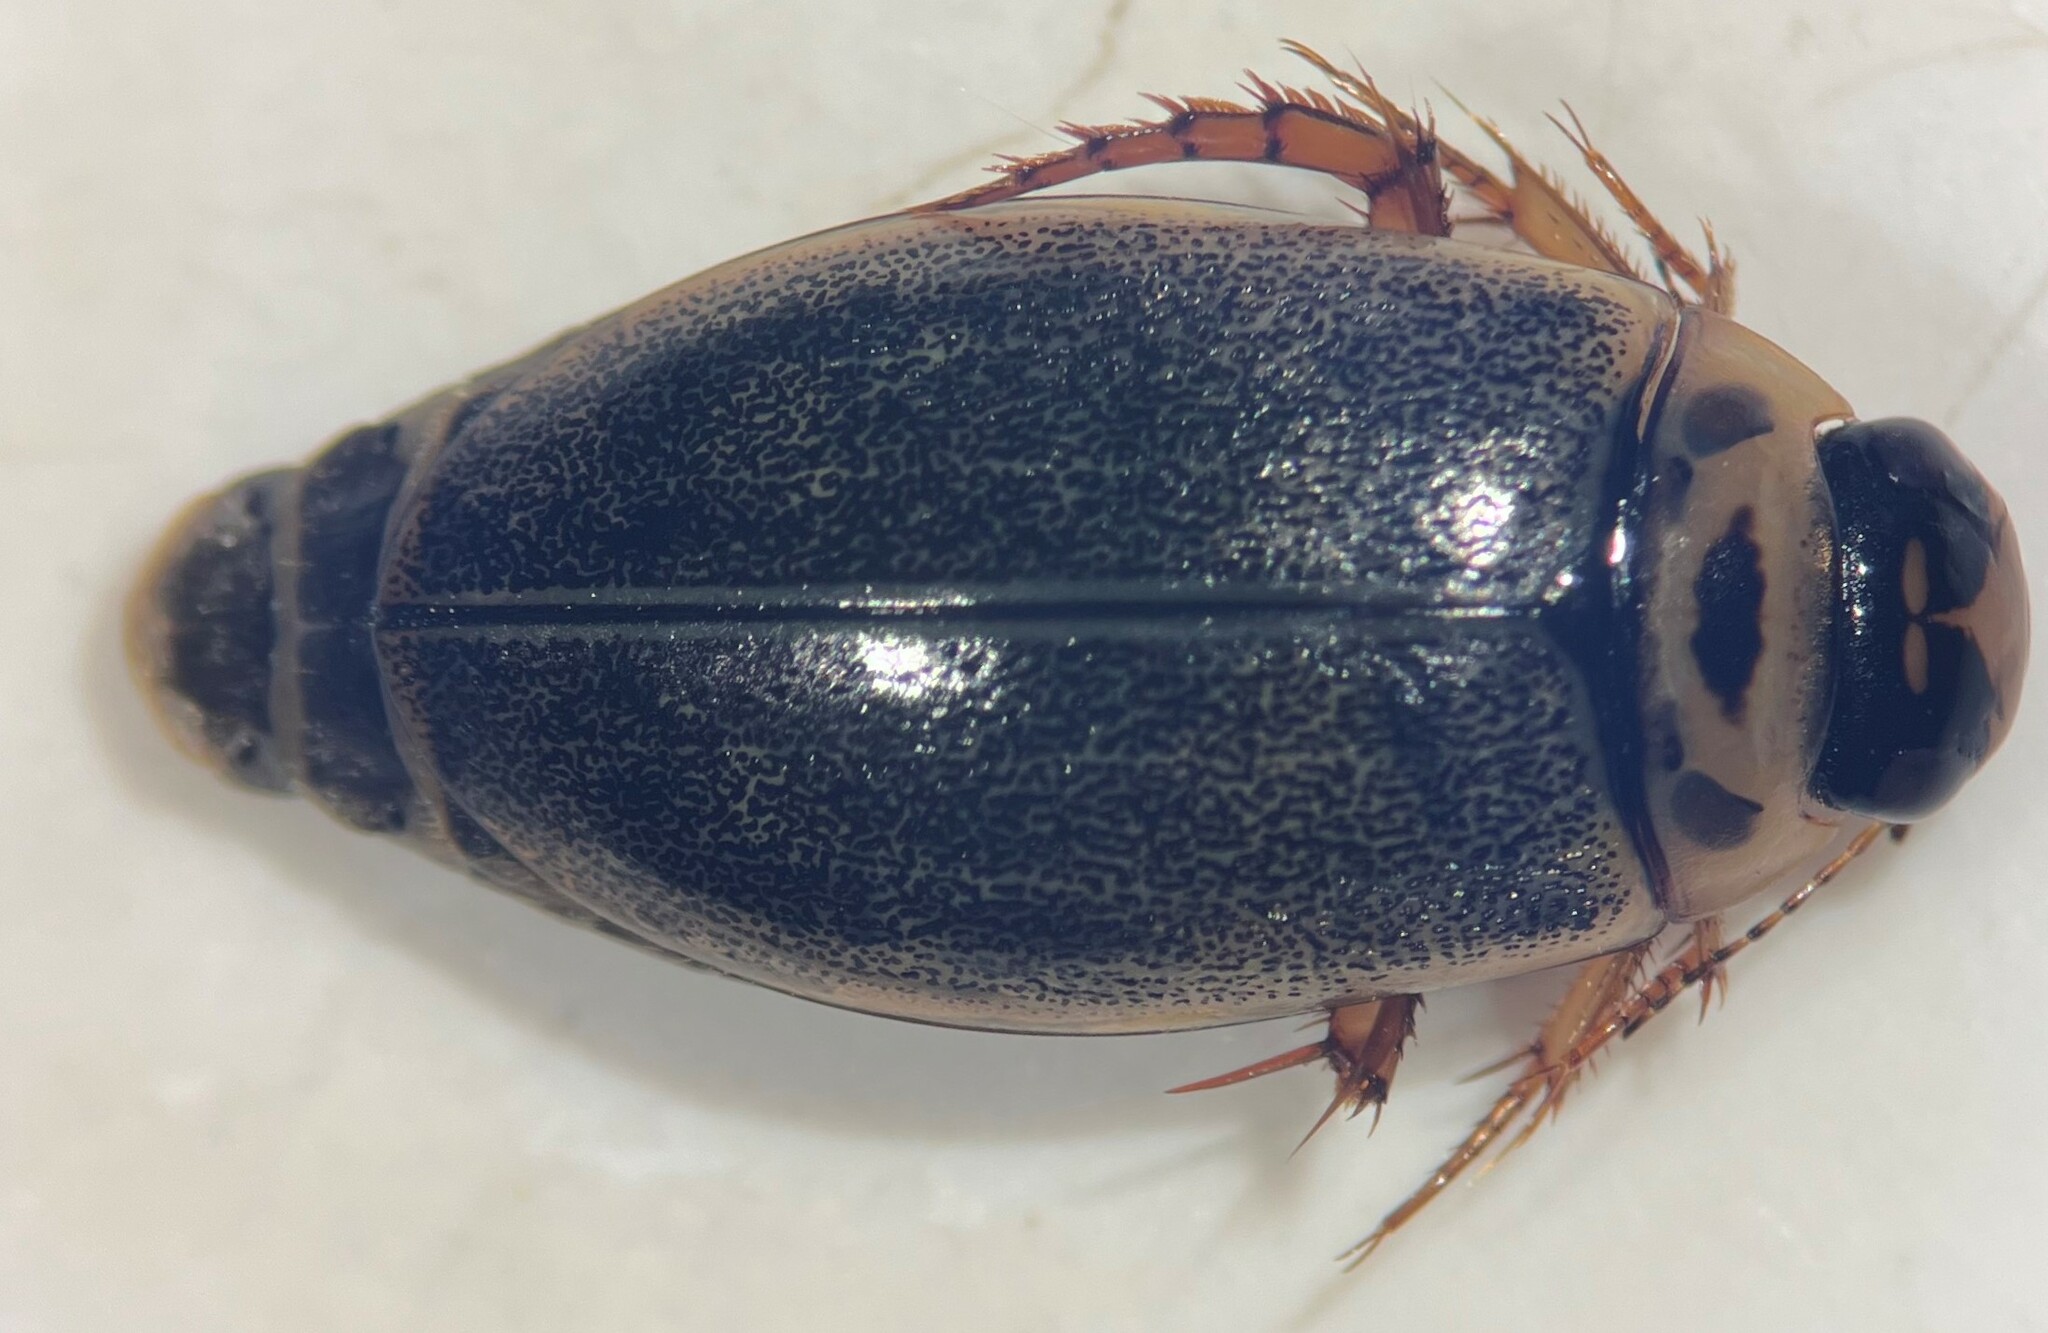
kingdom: Animalia
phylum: Arthropoda
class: Insecta
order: Coleoptera
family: Dytiscidae
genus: Rhantus
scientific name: Rhantus sericans
